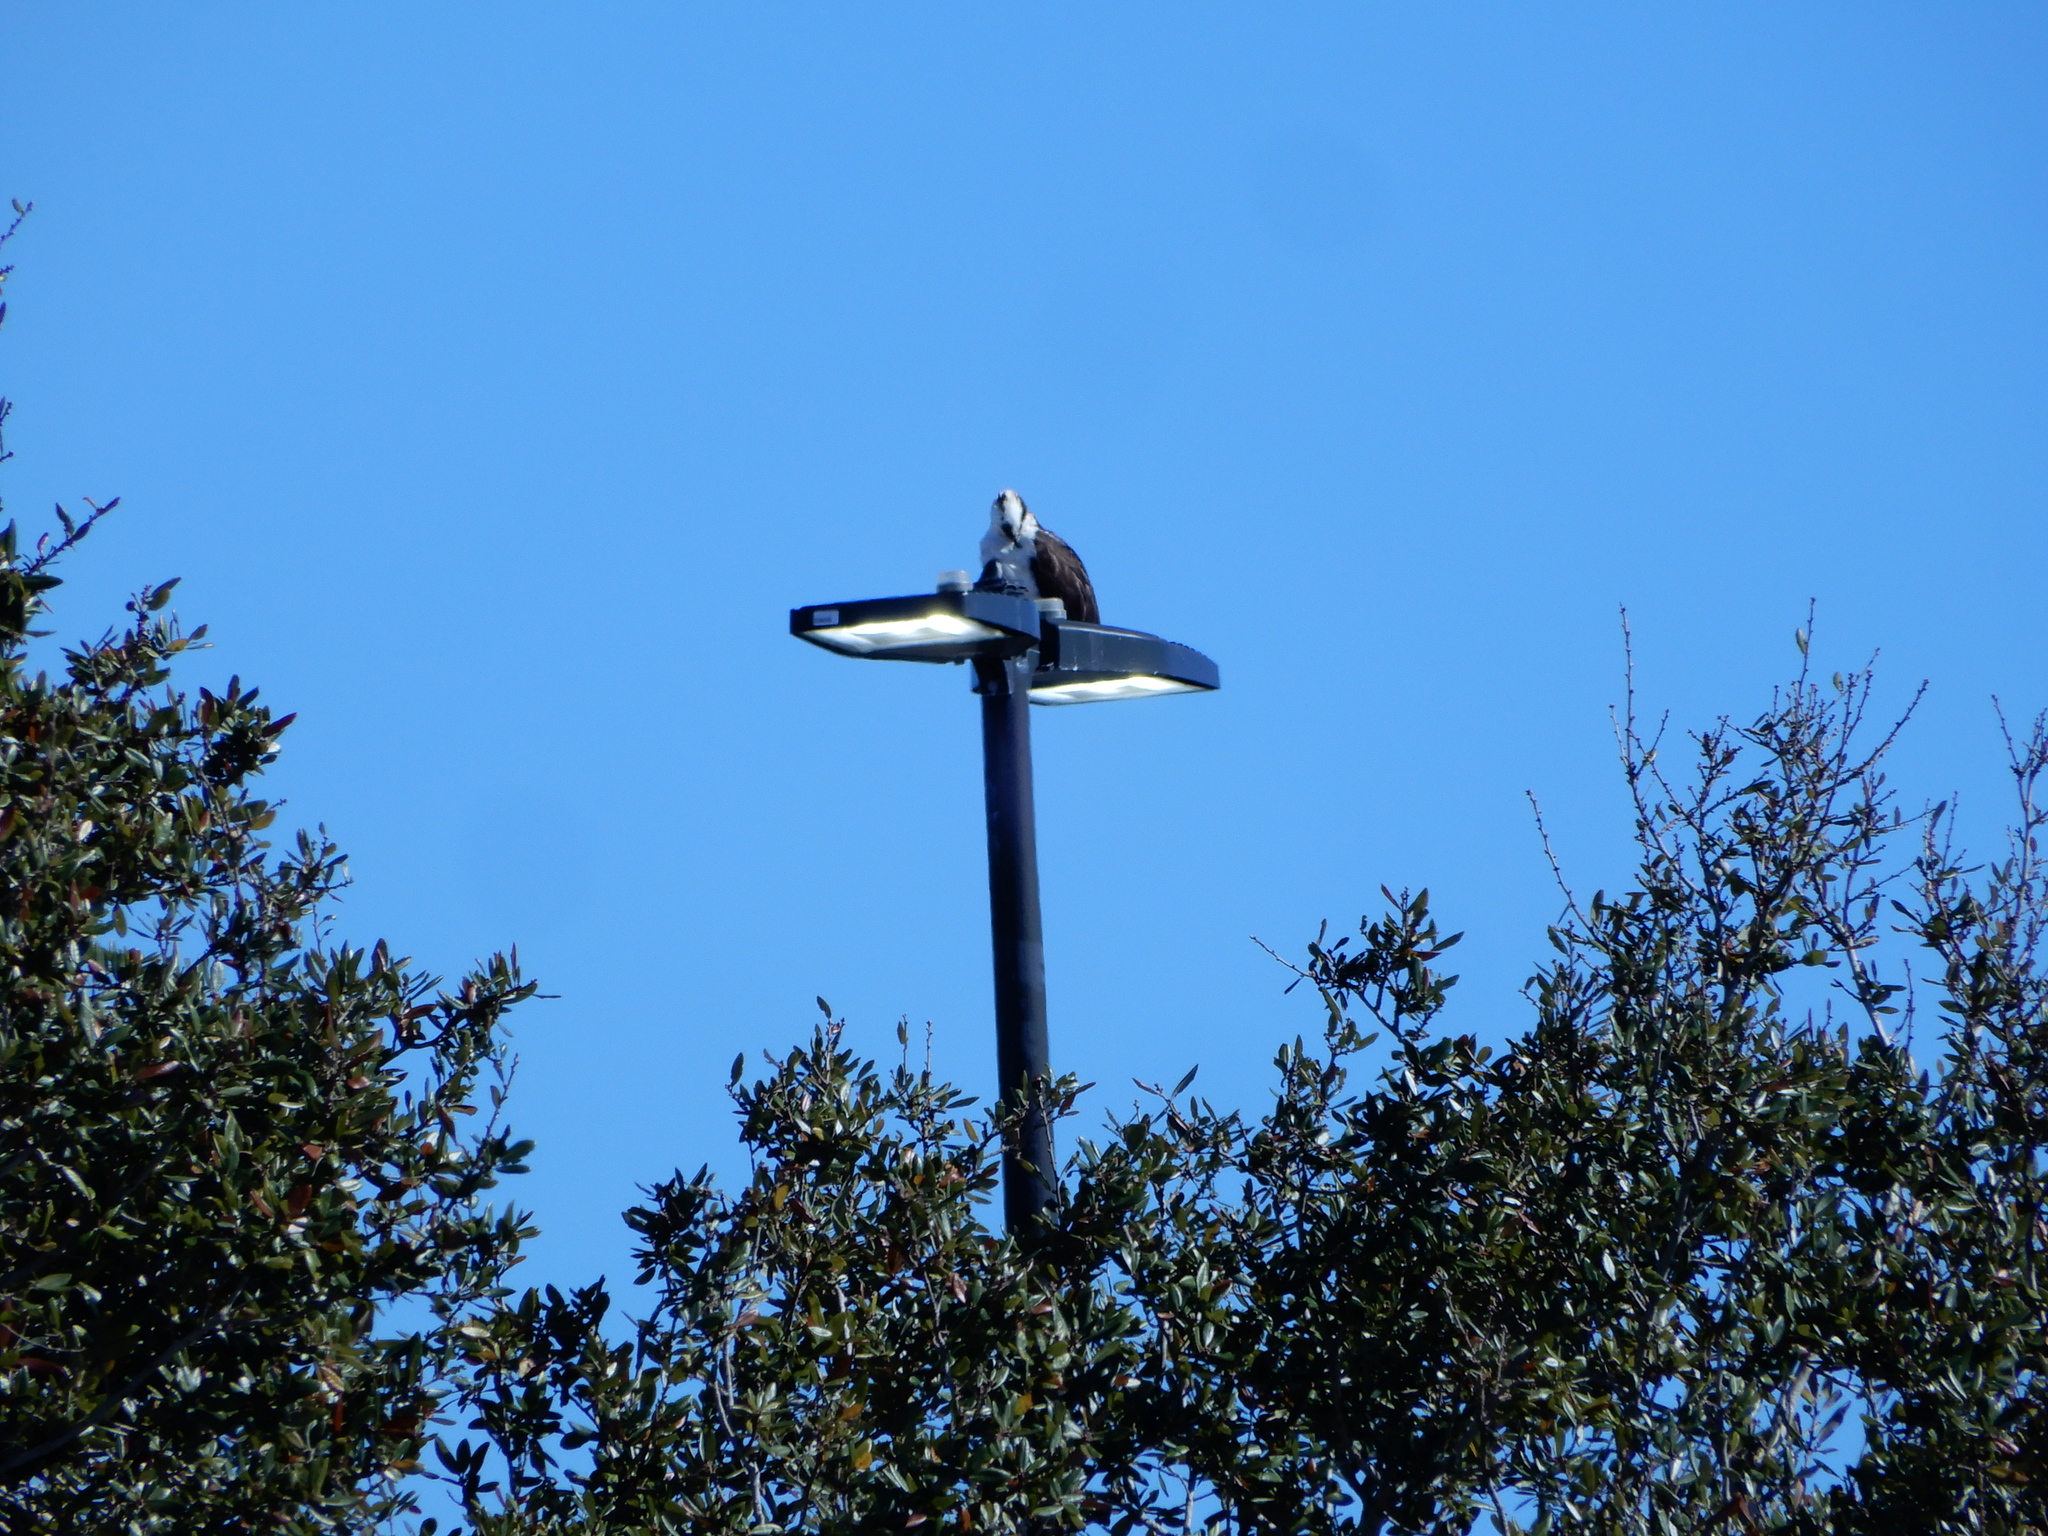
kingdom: Animalia
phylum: Chordata
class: Aves
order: Accipitriformes
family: Pandionidae
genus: Pandion
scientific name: Pandion haliaetus
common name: Osprey
